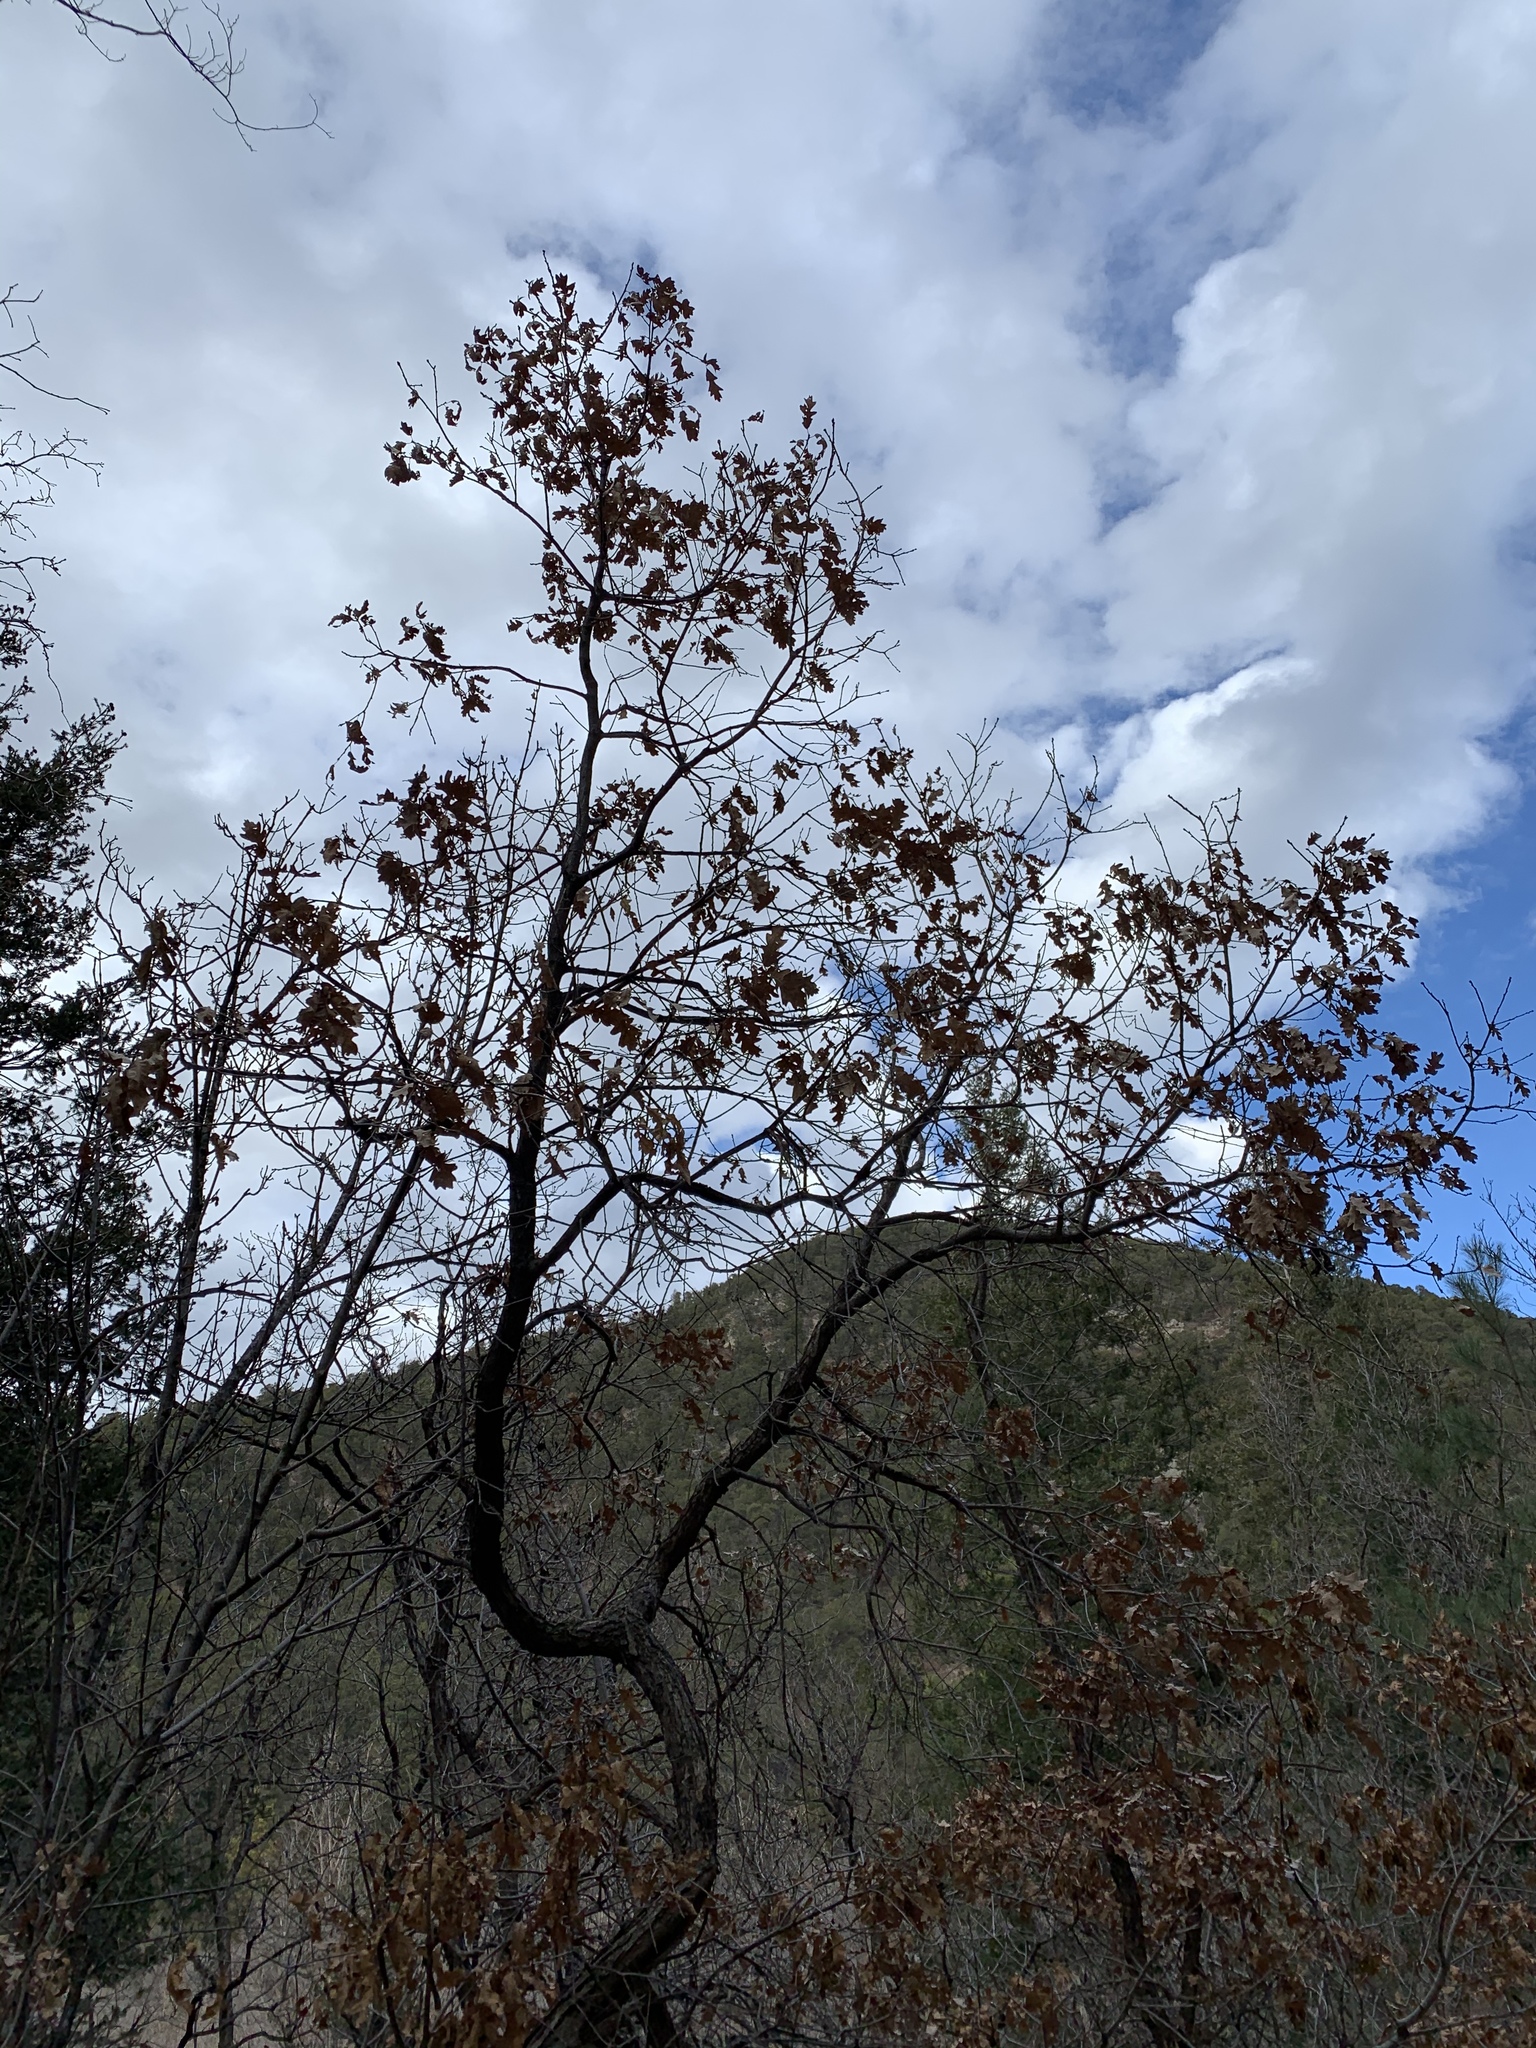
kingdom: Plantae
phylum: Tracheophyta
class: Magnoliopsida
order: Fagales
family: Fagaceae
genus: Quercus
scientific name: Quercus gambelii
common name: Gambel oak
